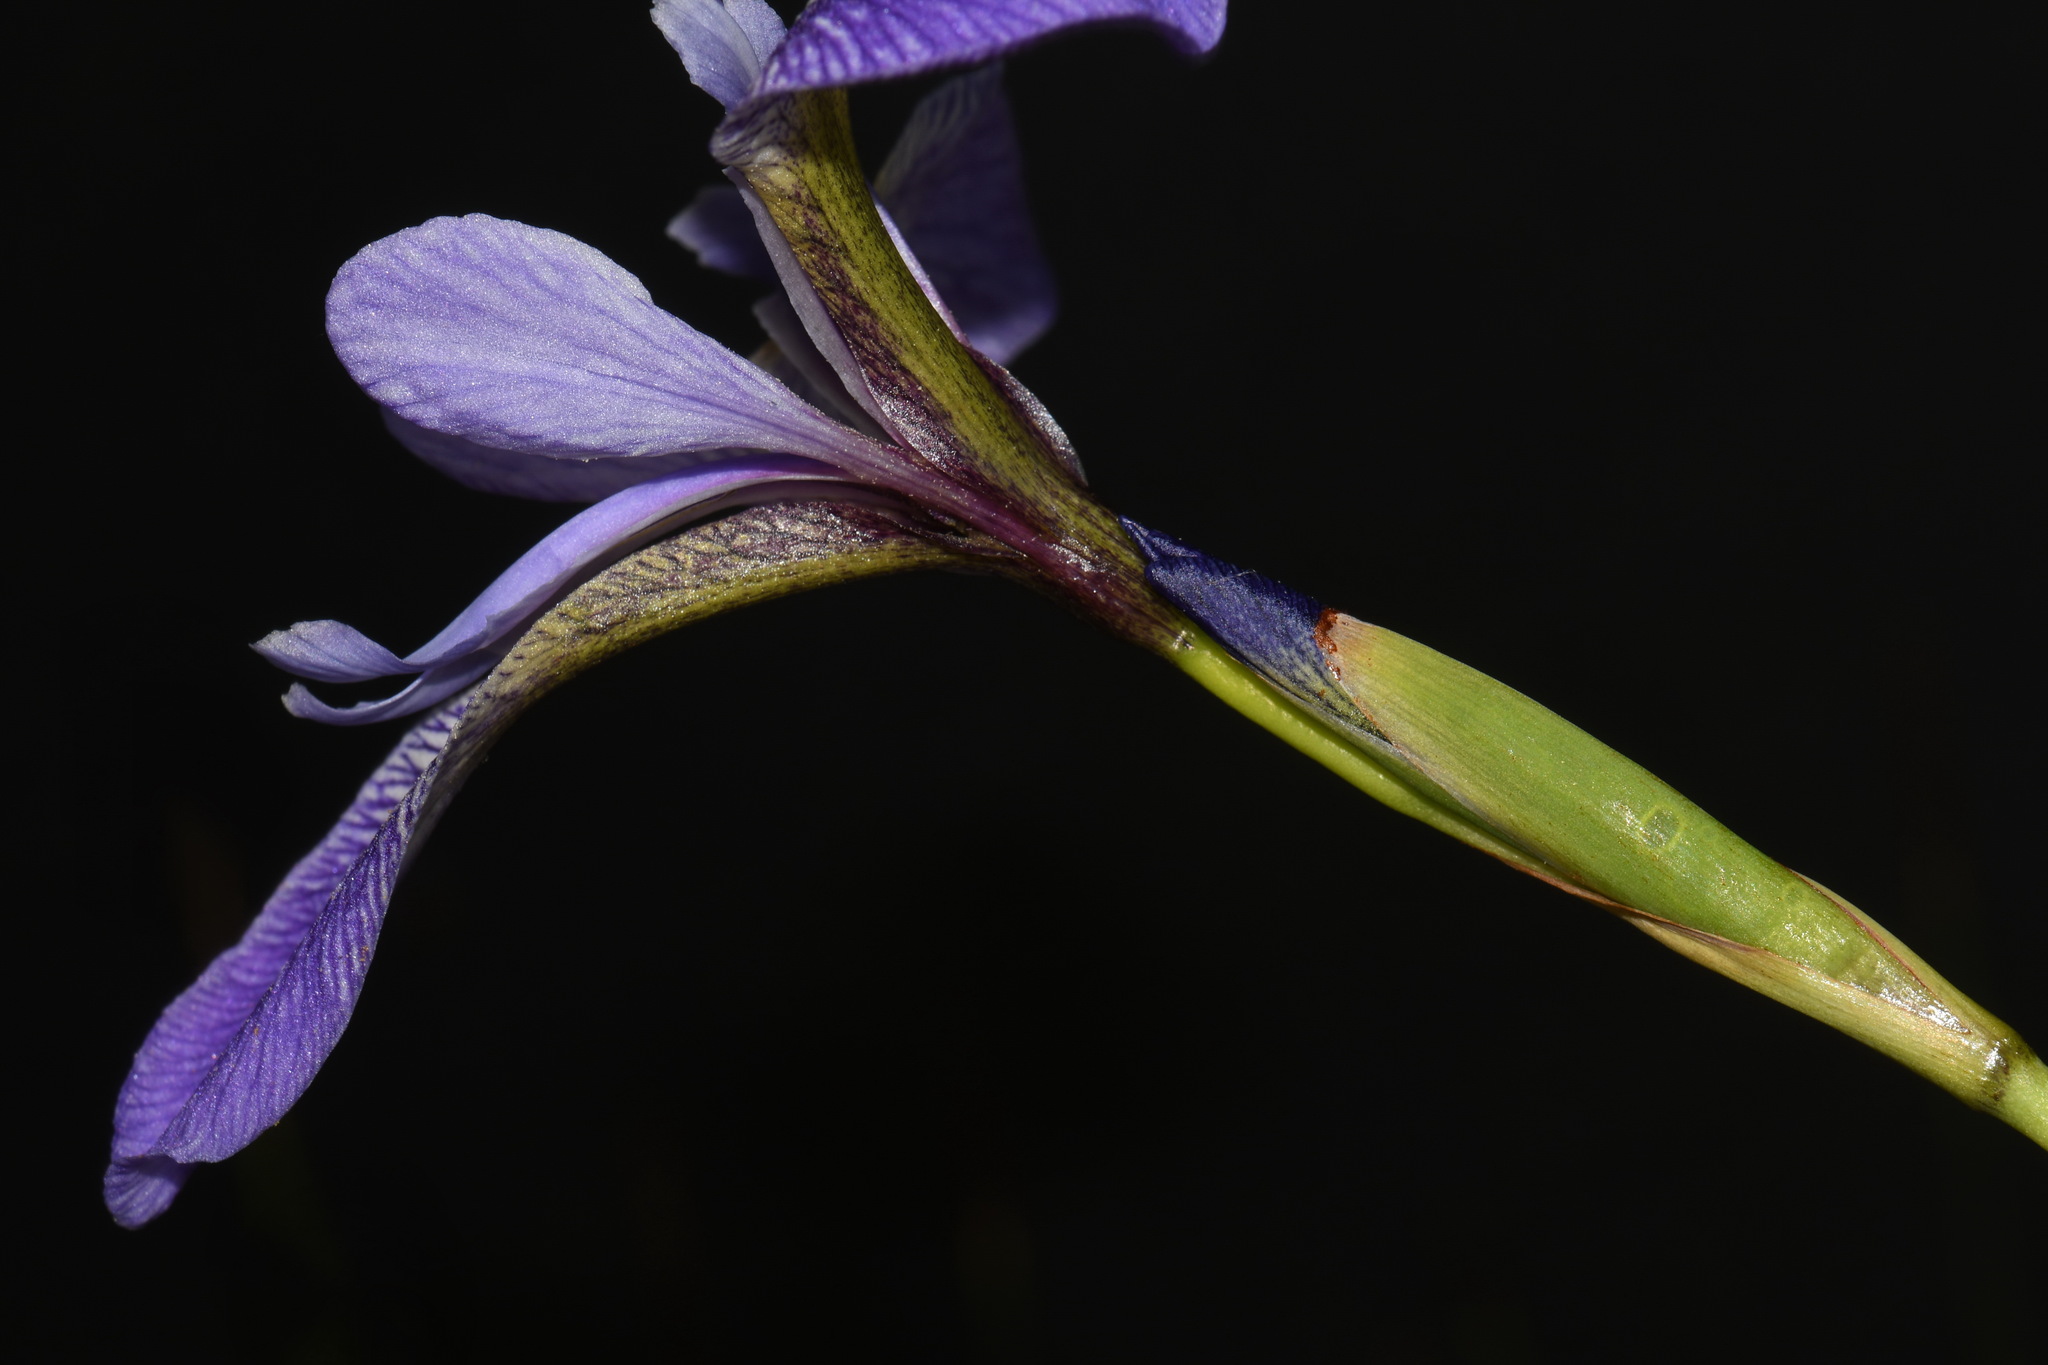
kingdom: Plantae
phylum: Tracheophyta
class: Liliopsida
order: Asparagales
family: Iridaceae
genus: Iris
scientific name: Iris versicolor
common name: Purple iris
